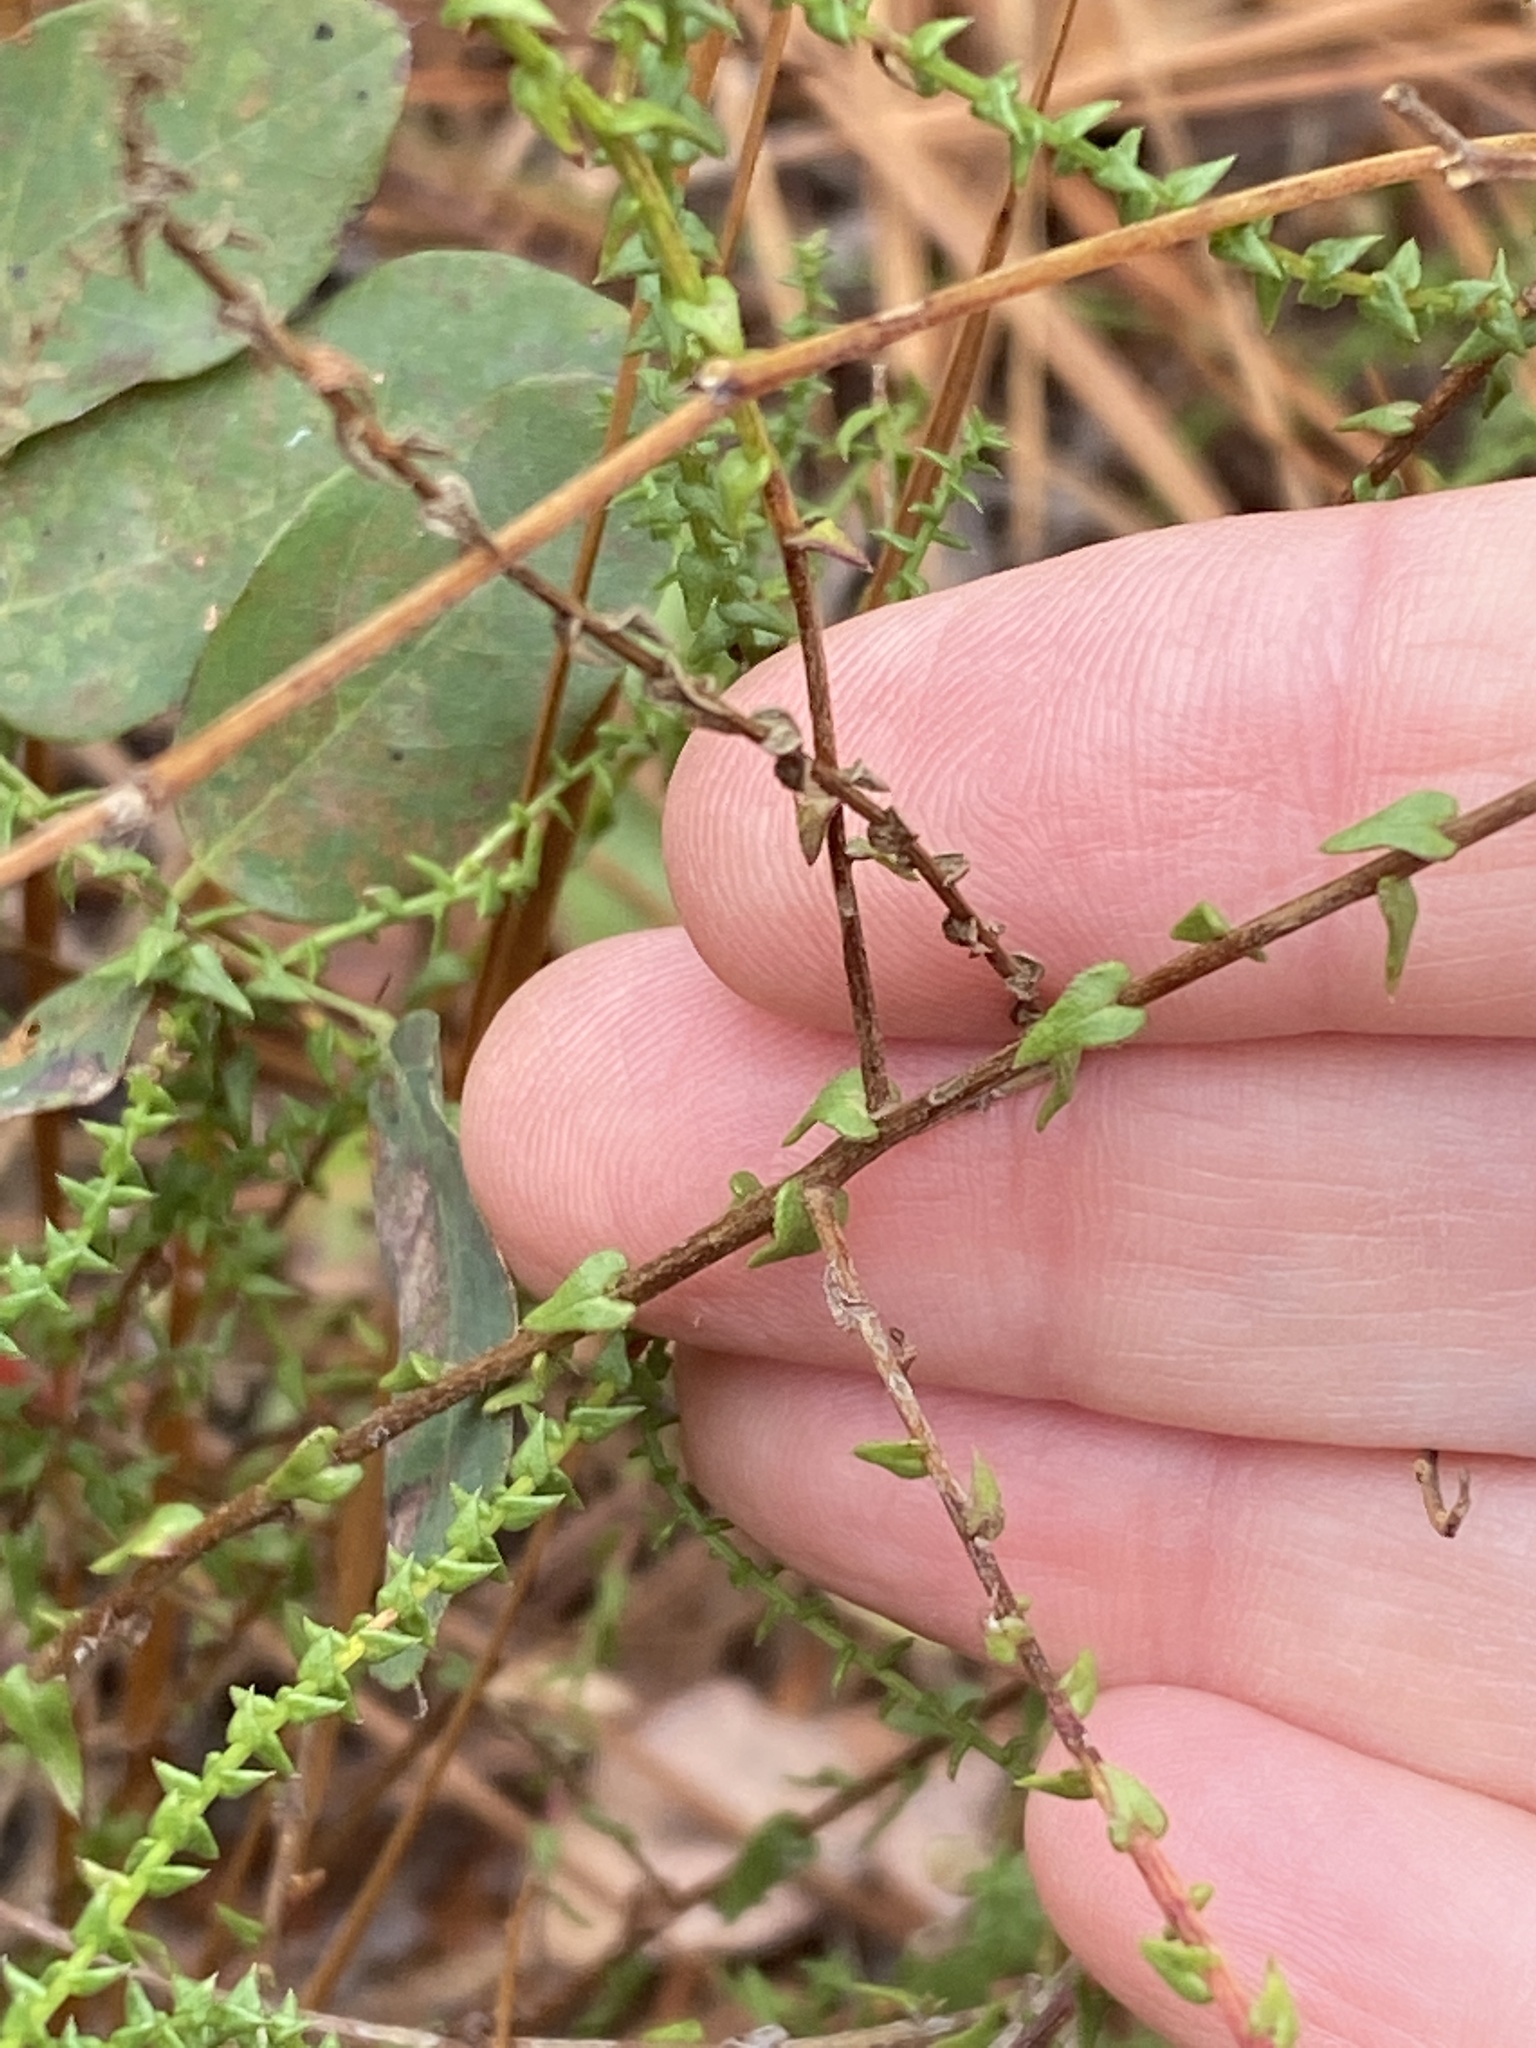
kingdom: Plantae
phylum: Tracheophyta
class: Magnoliopsida
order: Asterales
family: Asteraceae
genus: Symphyotrichum
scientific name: Symphyotrichum walteri
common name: Walter's aster
